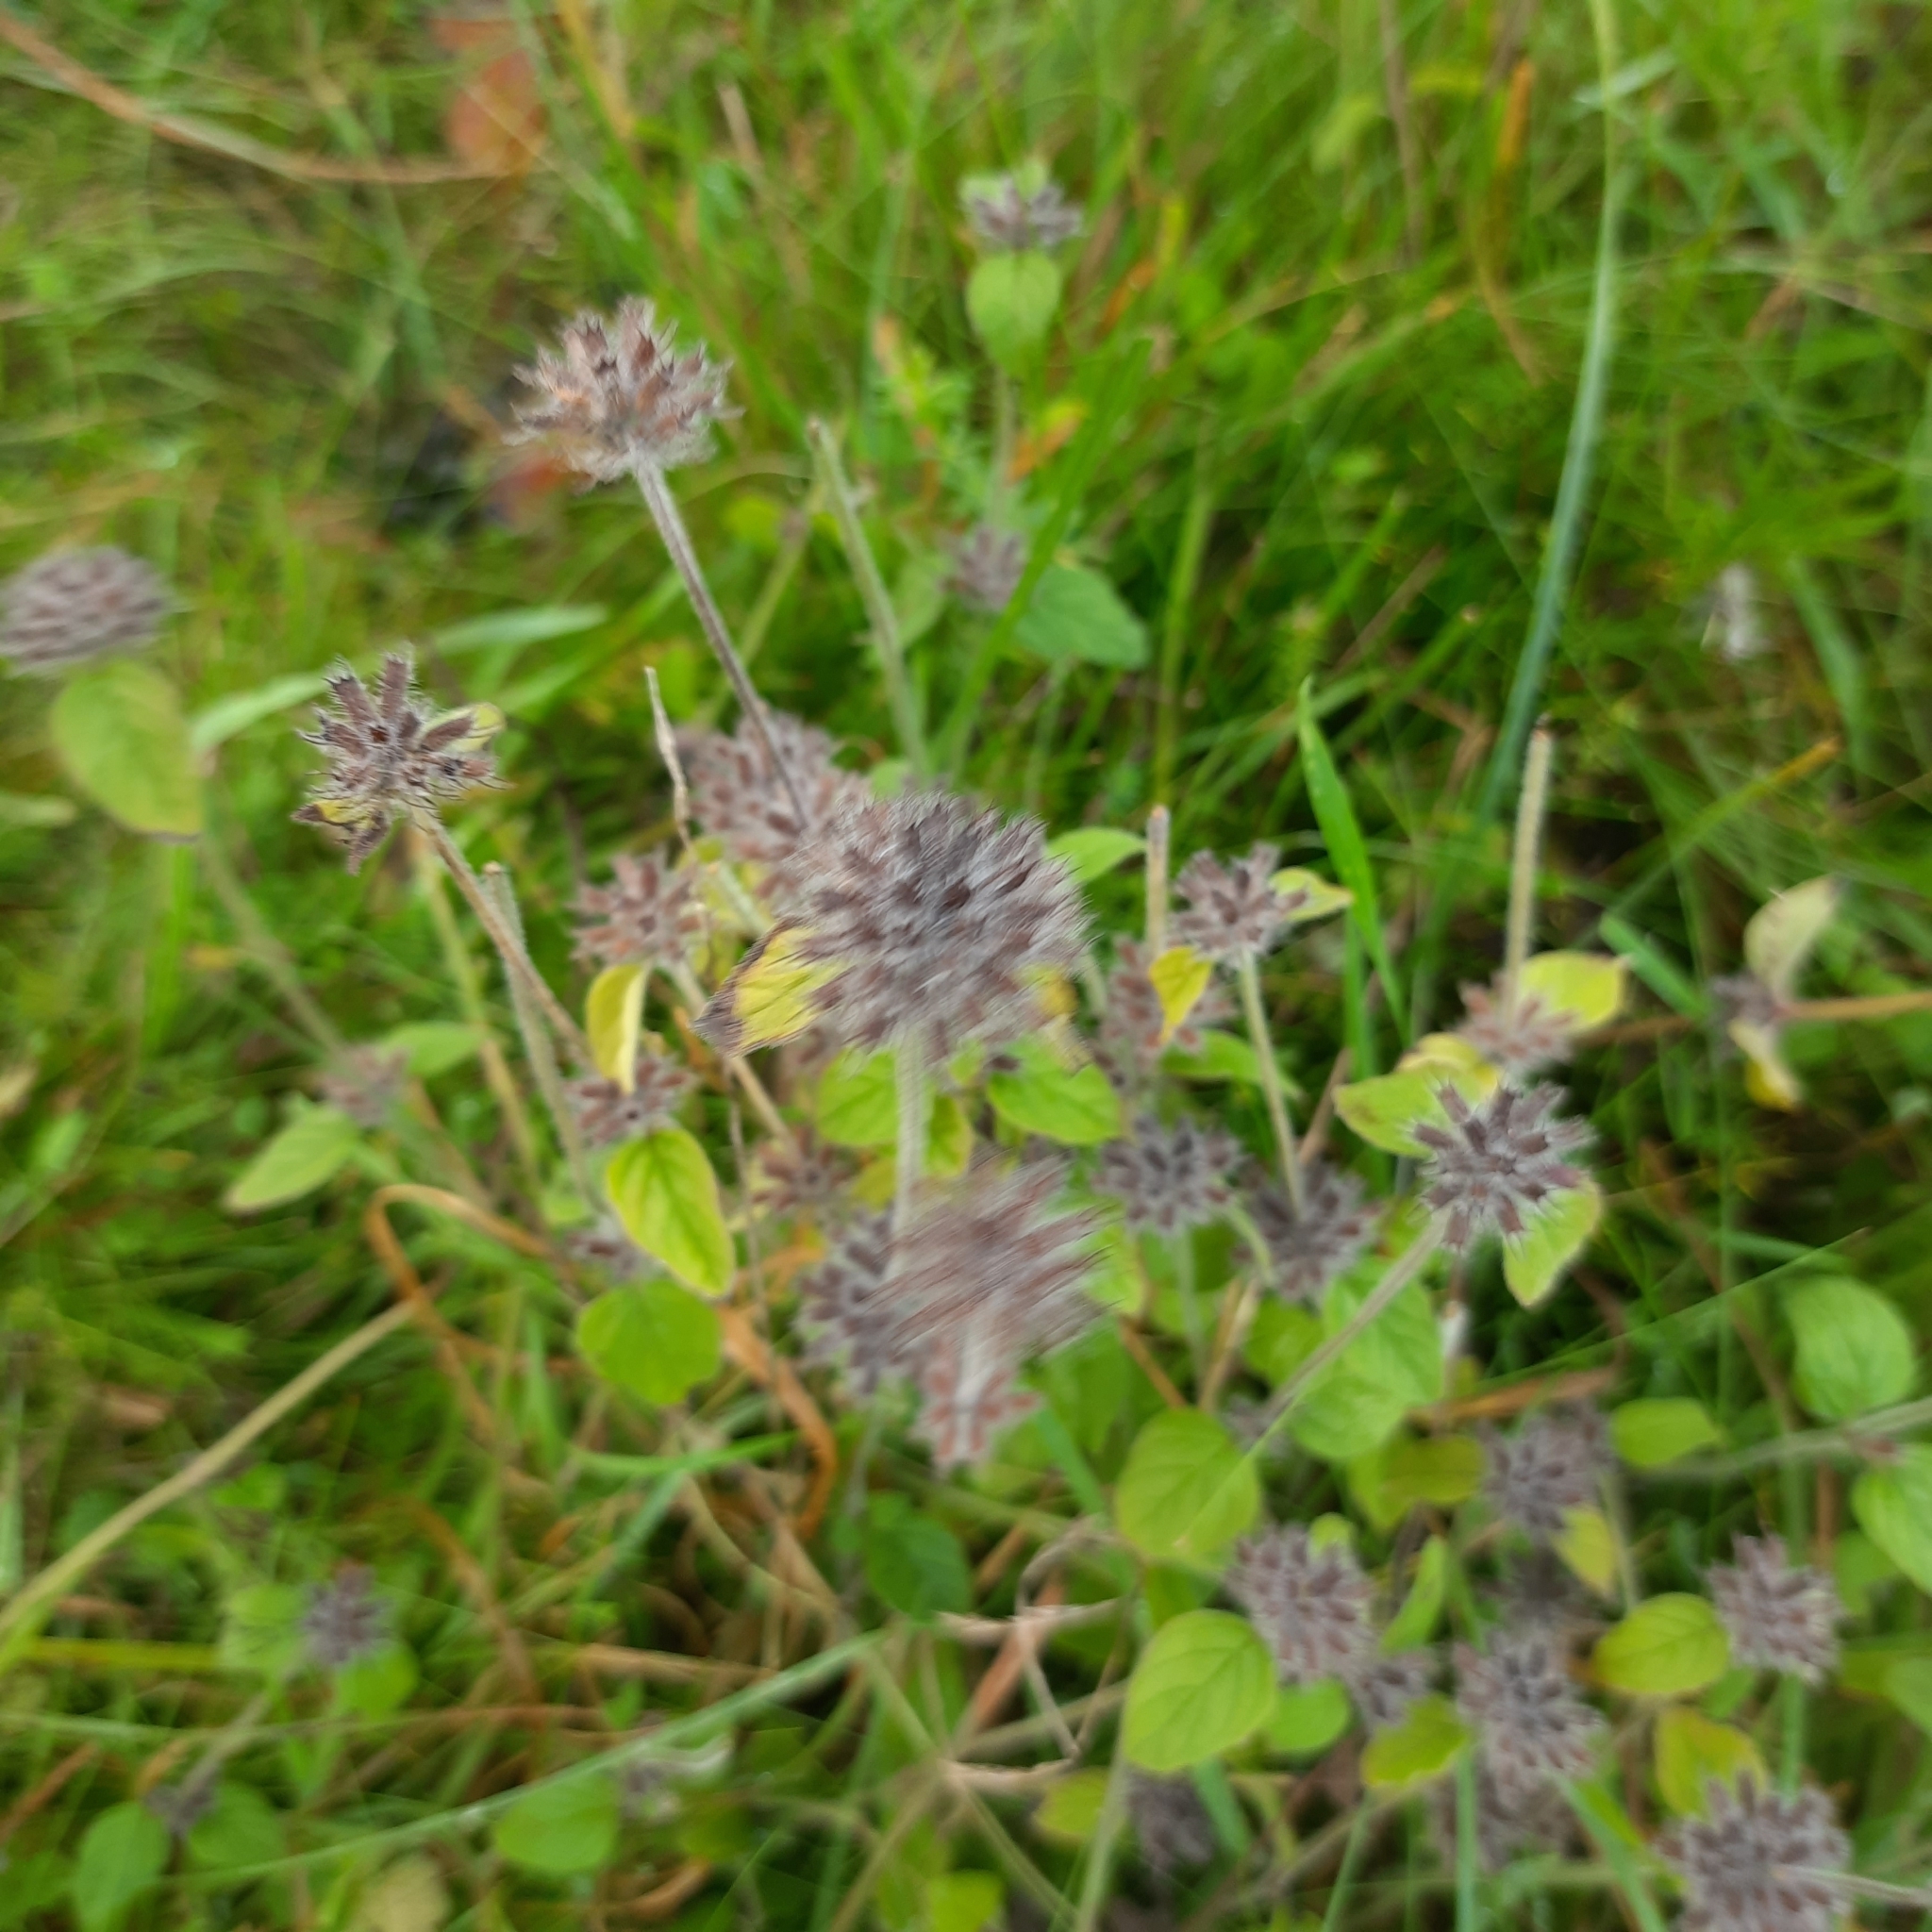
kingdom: Plantae
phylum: Tracheophyta
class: Magnoliopsida
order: Lamiales
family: Lamiaceae
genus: Clinopodium
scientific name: Clinopodium vulgare
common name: Wild basil
